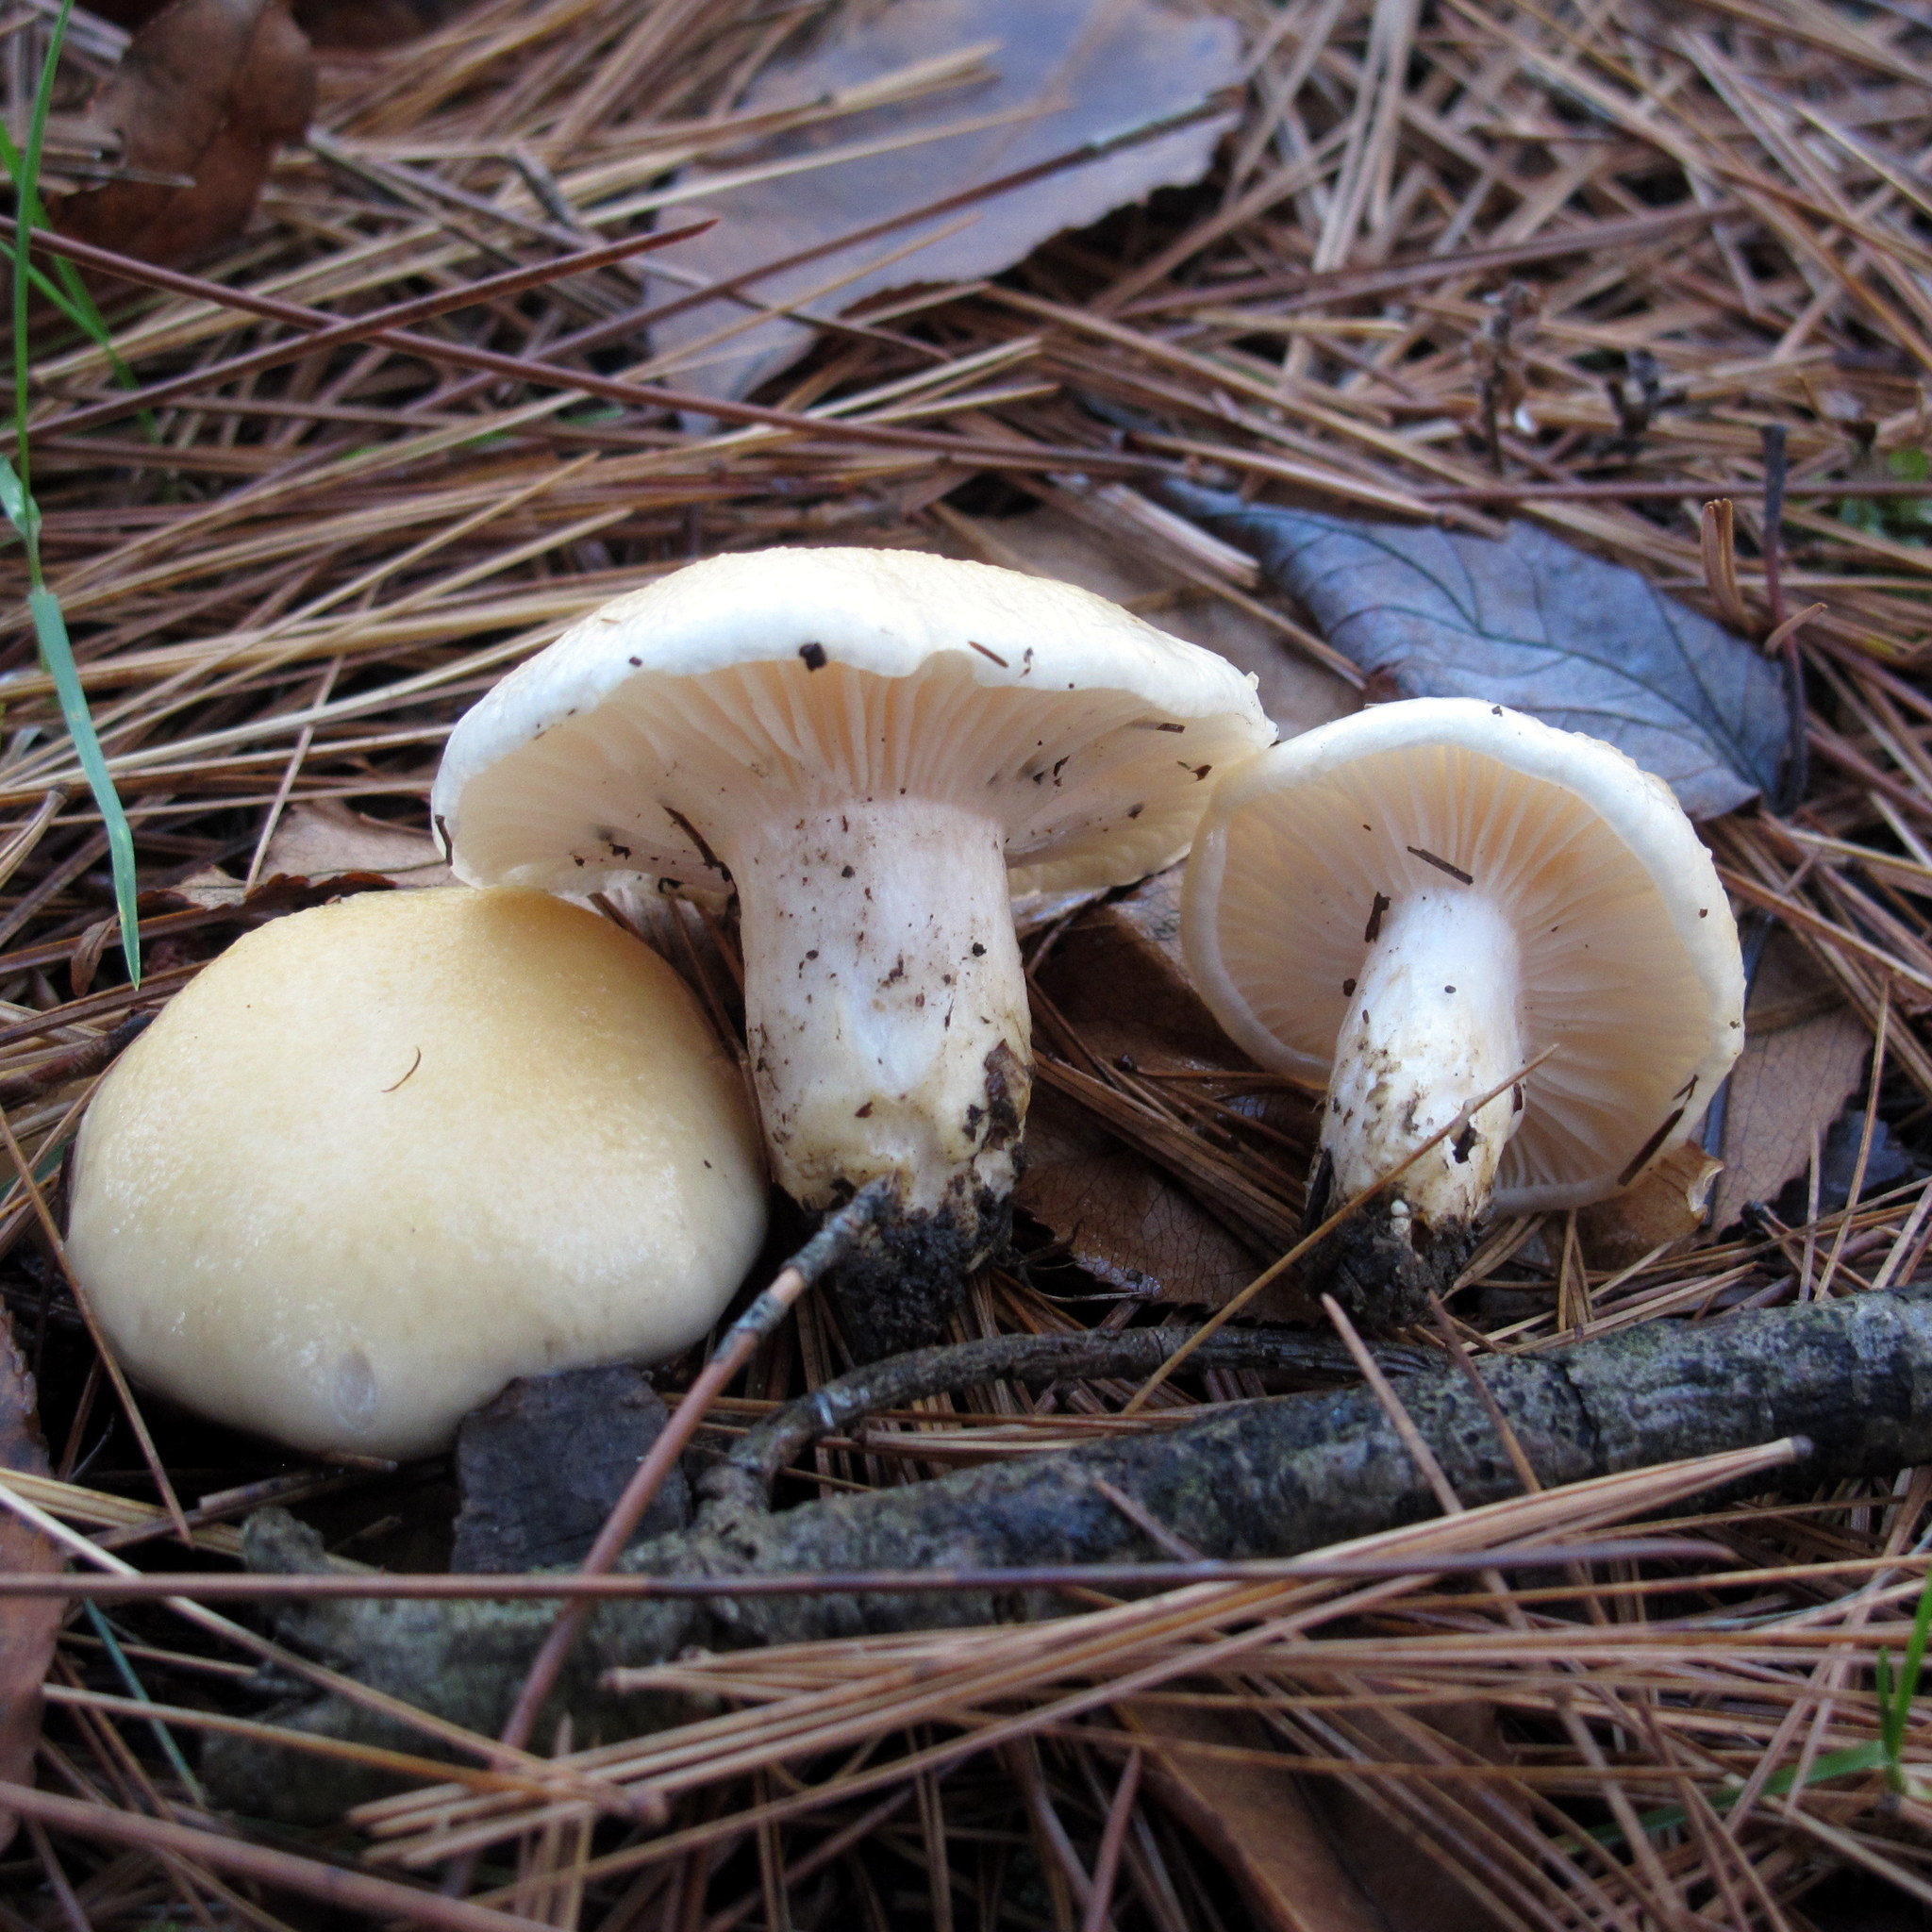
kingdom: Fungi
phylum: Basidiomycota
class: Agaricomycetes
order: Agaricales
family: Hygrophoraceae
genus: Hygrophorus
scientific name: Hygrophorus ligatus
